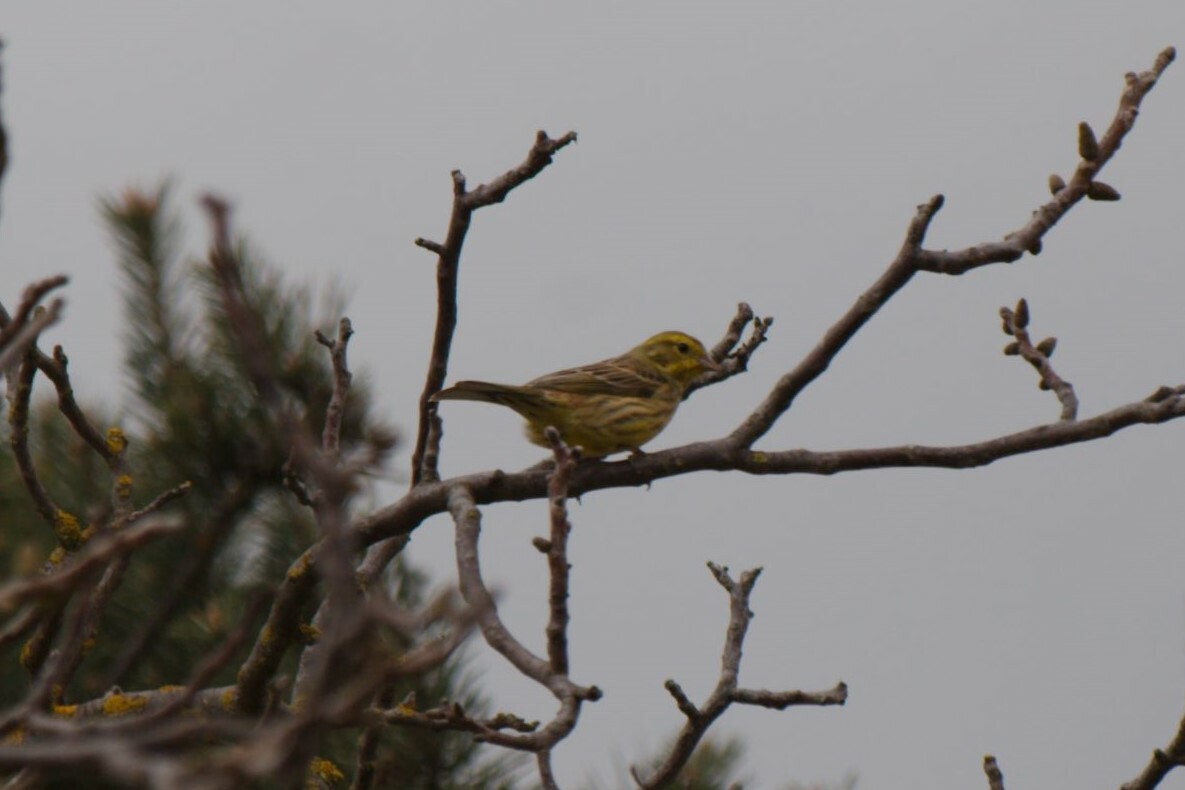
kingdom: Animalia
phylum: Chordata
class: Aves
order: Passeriformes
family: Emberizidae
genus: Emberiza
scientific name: Emberiza citrinella
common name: Yellowhammer
